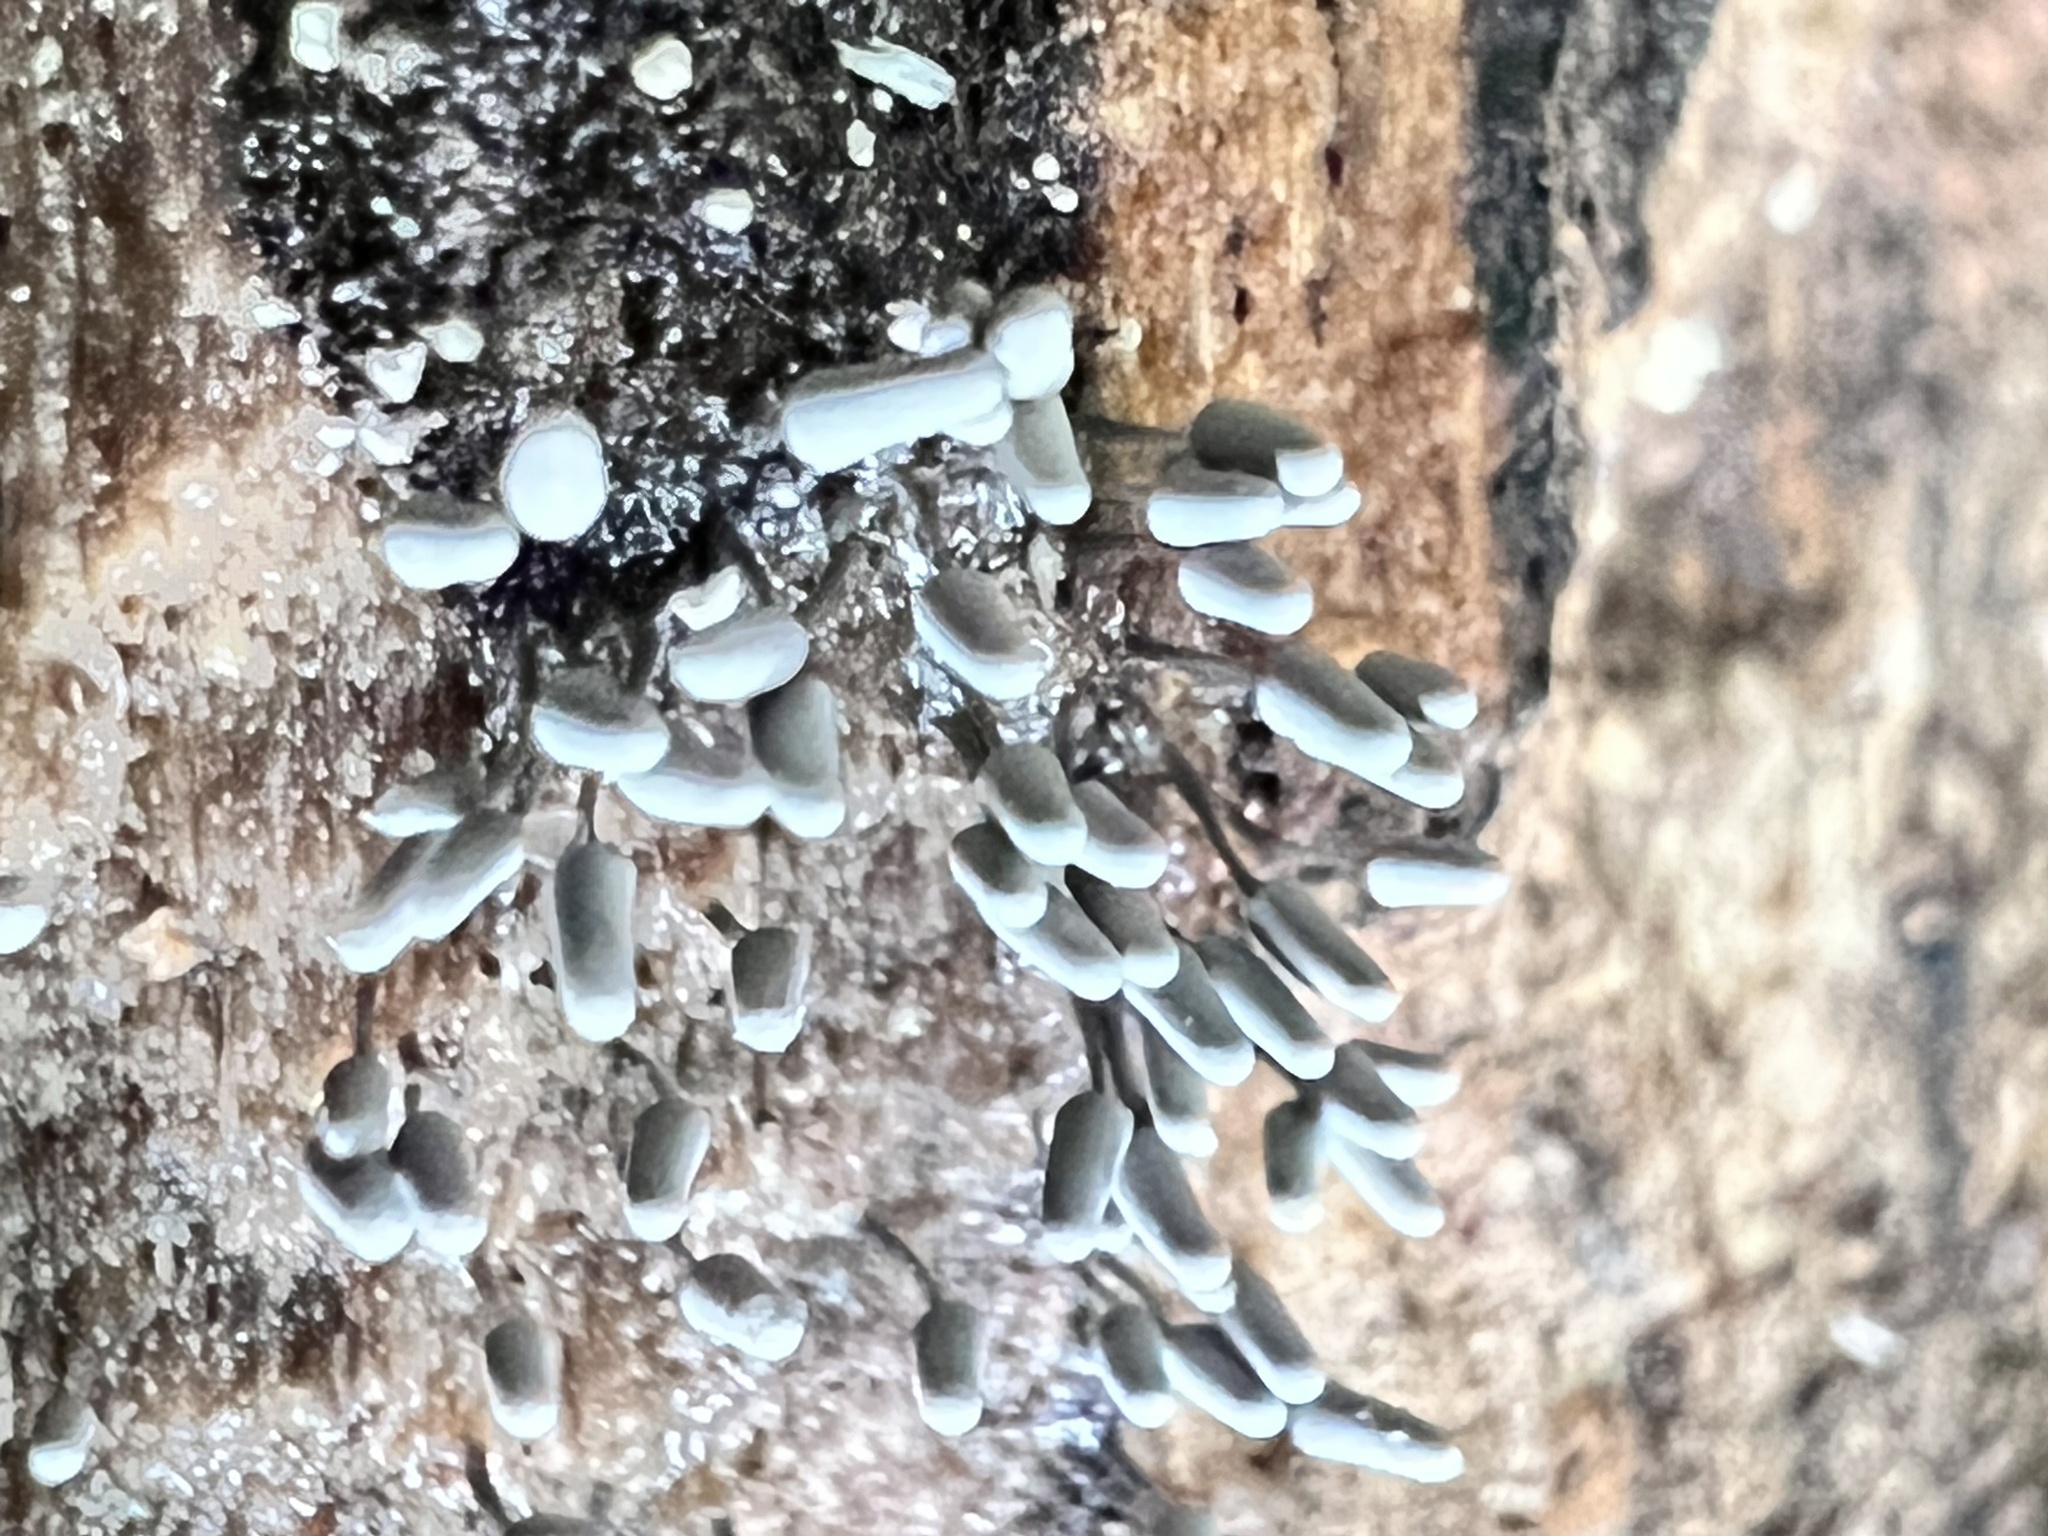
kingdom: Protozoa
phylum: Mycetozoa
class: Myxomycetes
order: Trichiales
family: Arcyriaceae
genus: Arcyria
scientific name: Arcyria cinerea
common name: White carnival candy slime mold
